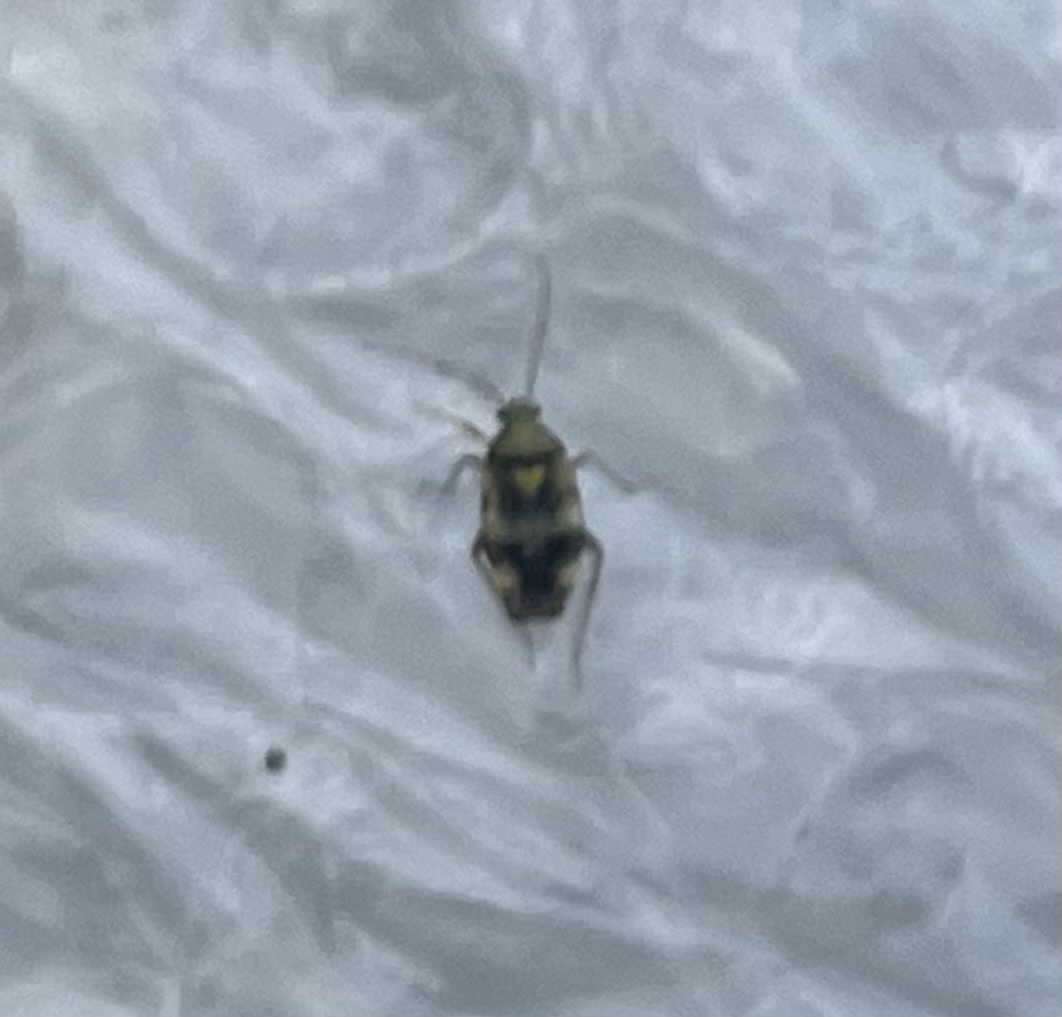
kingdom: Animalia
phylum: Arthropoda
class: Insecta
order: Hemiptera
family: Miridae
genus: Liocoris
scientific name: Liocoris tripustulatus
